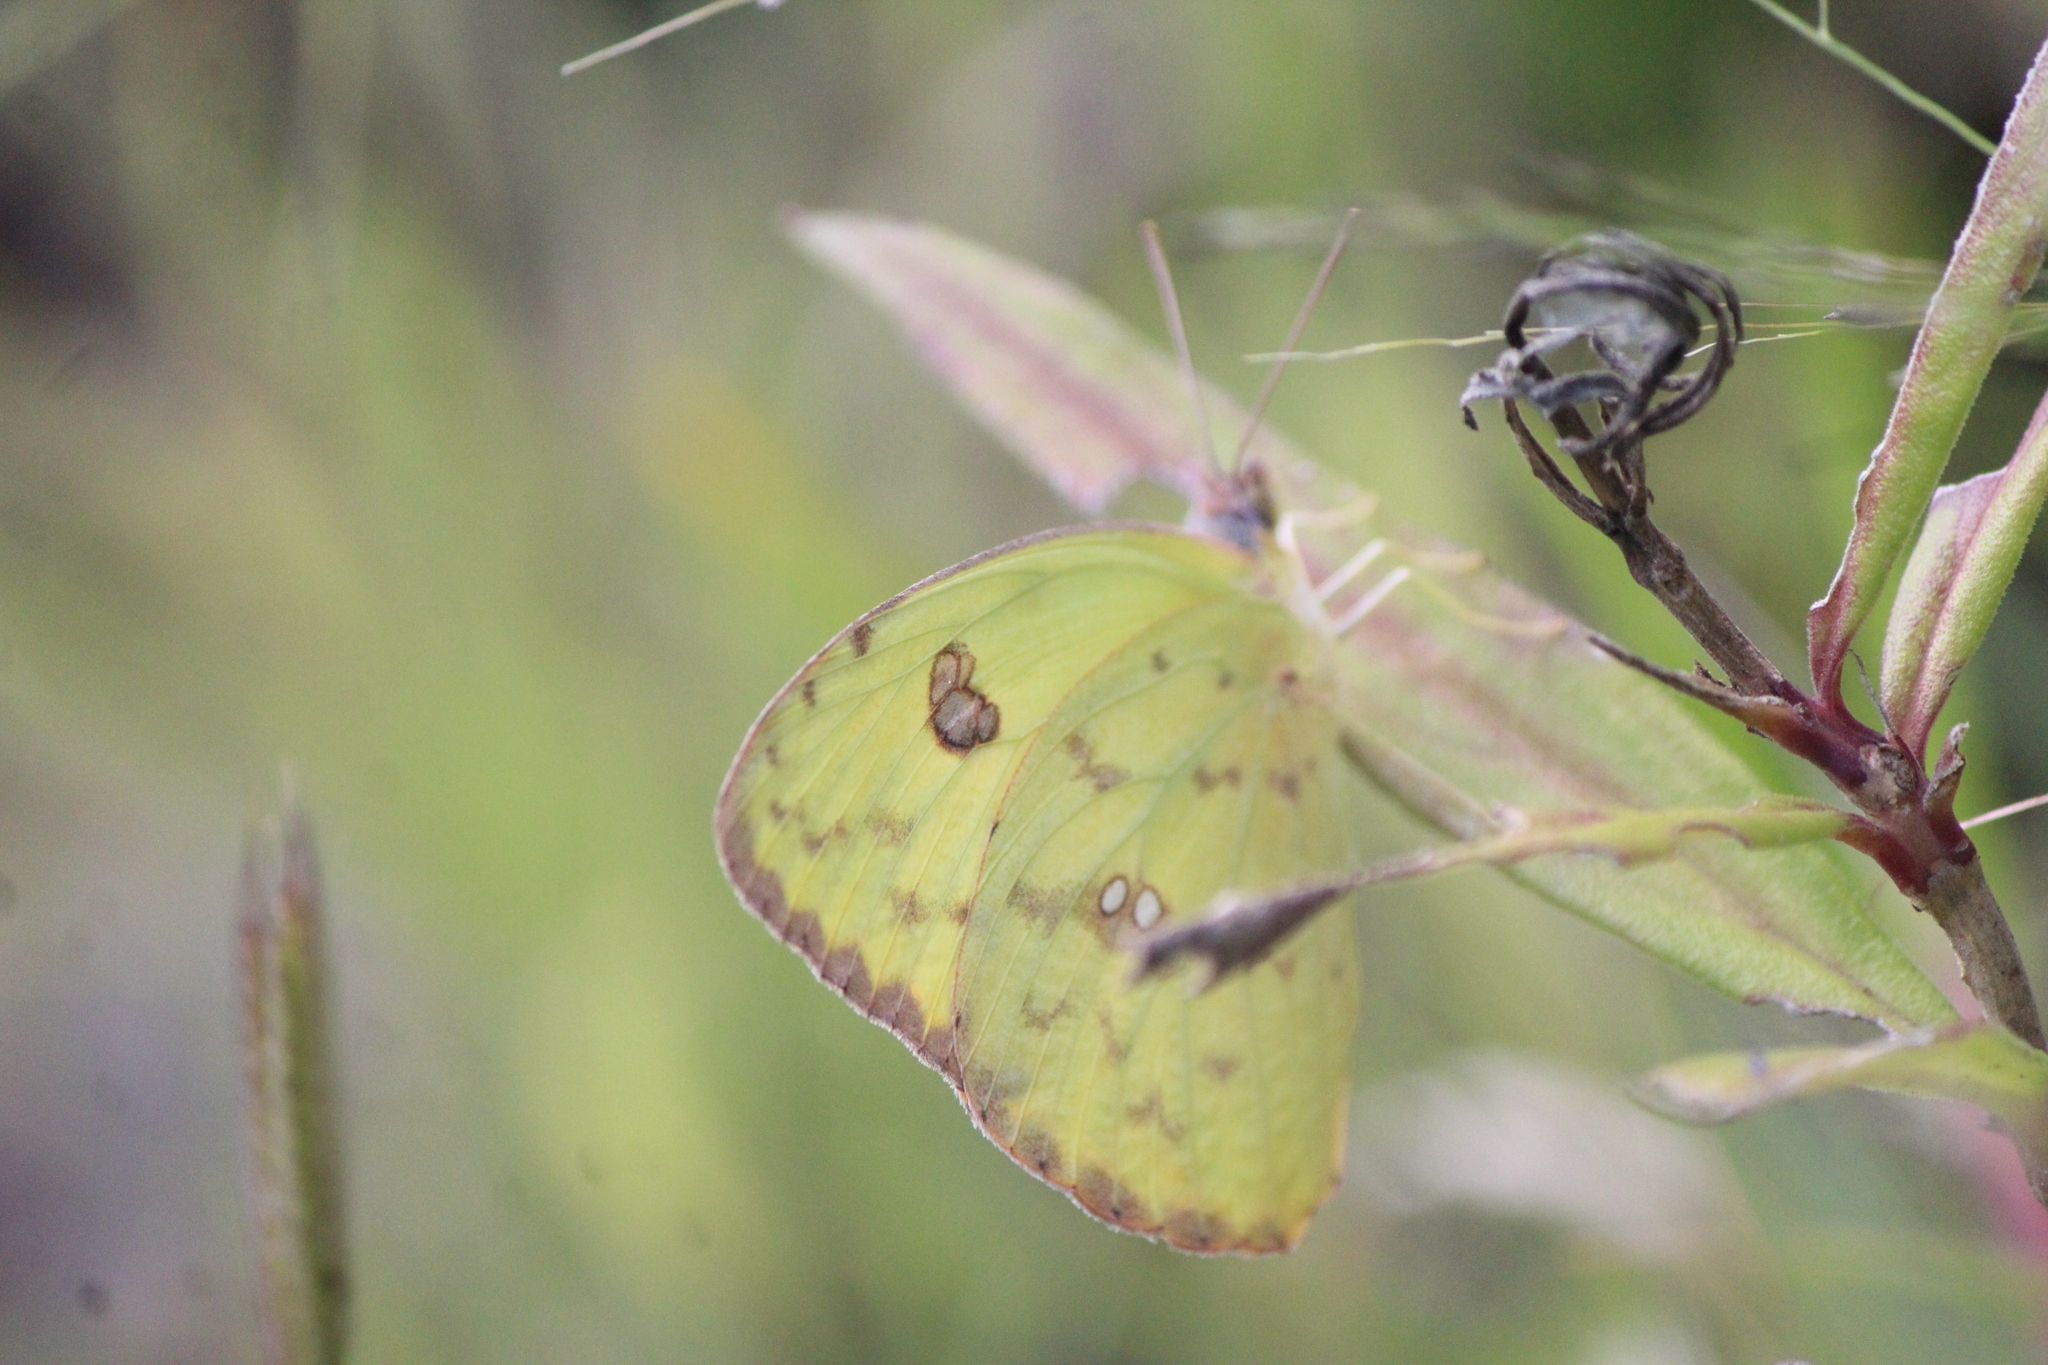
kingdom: Animalia
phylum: Arthropoda
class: Insecta
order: Lepidoptera
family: Pieridae
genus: Phoebis
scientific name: Phoebis sennae
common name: Cloudless sulphur
